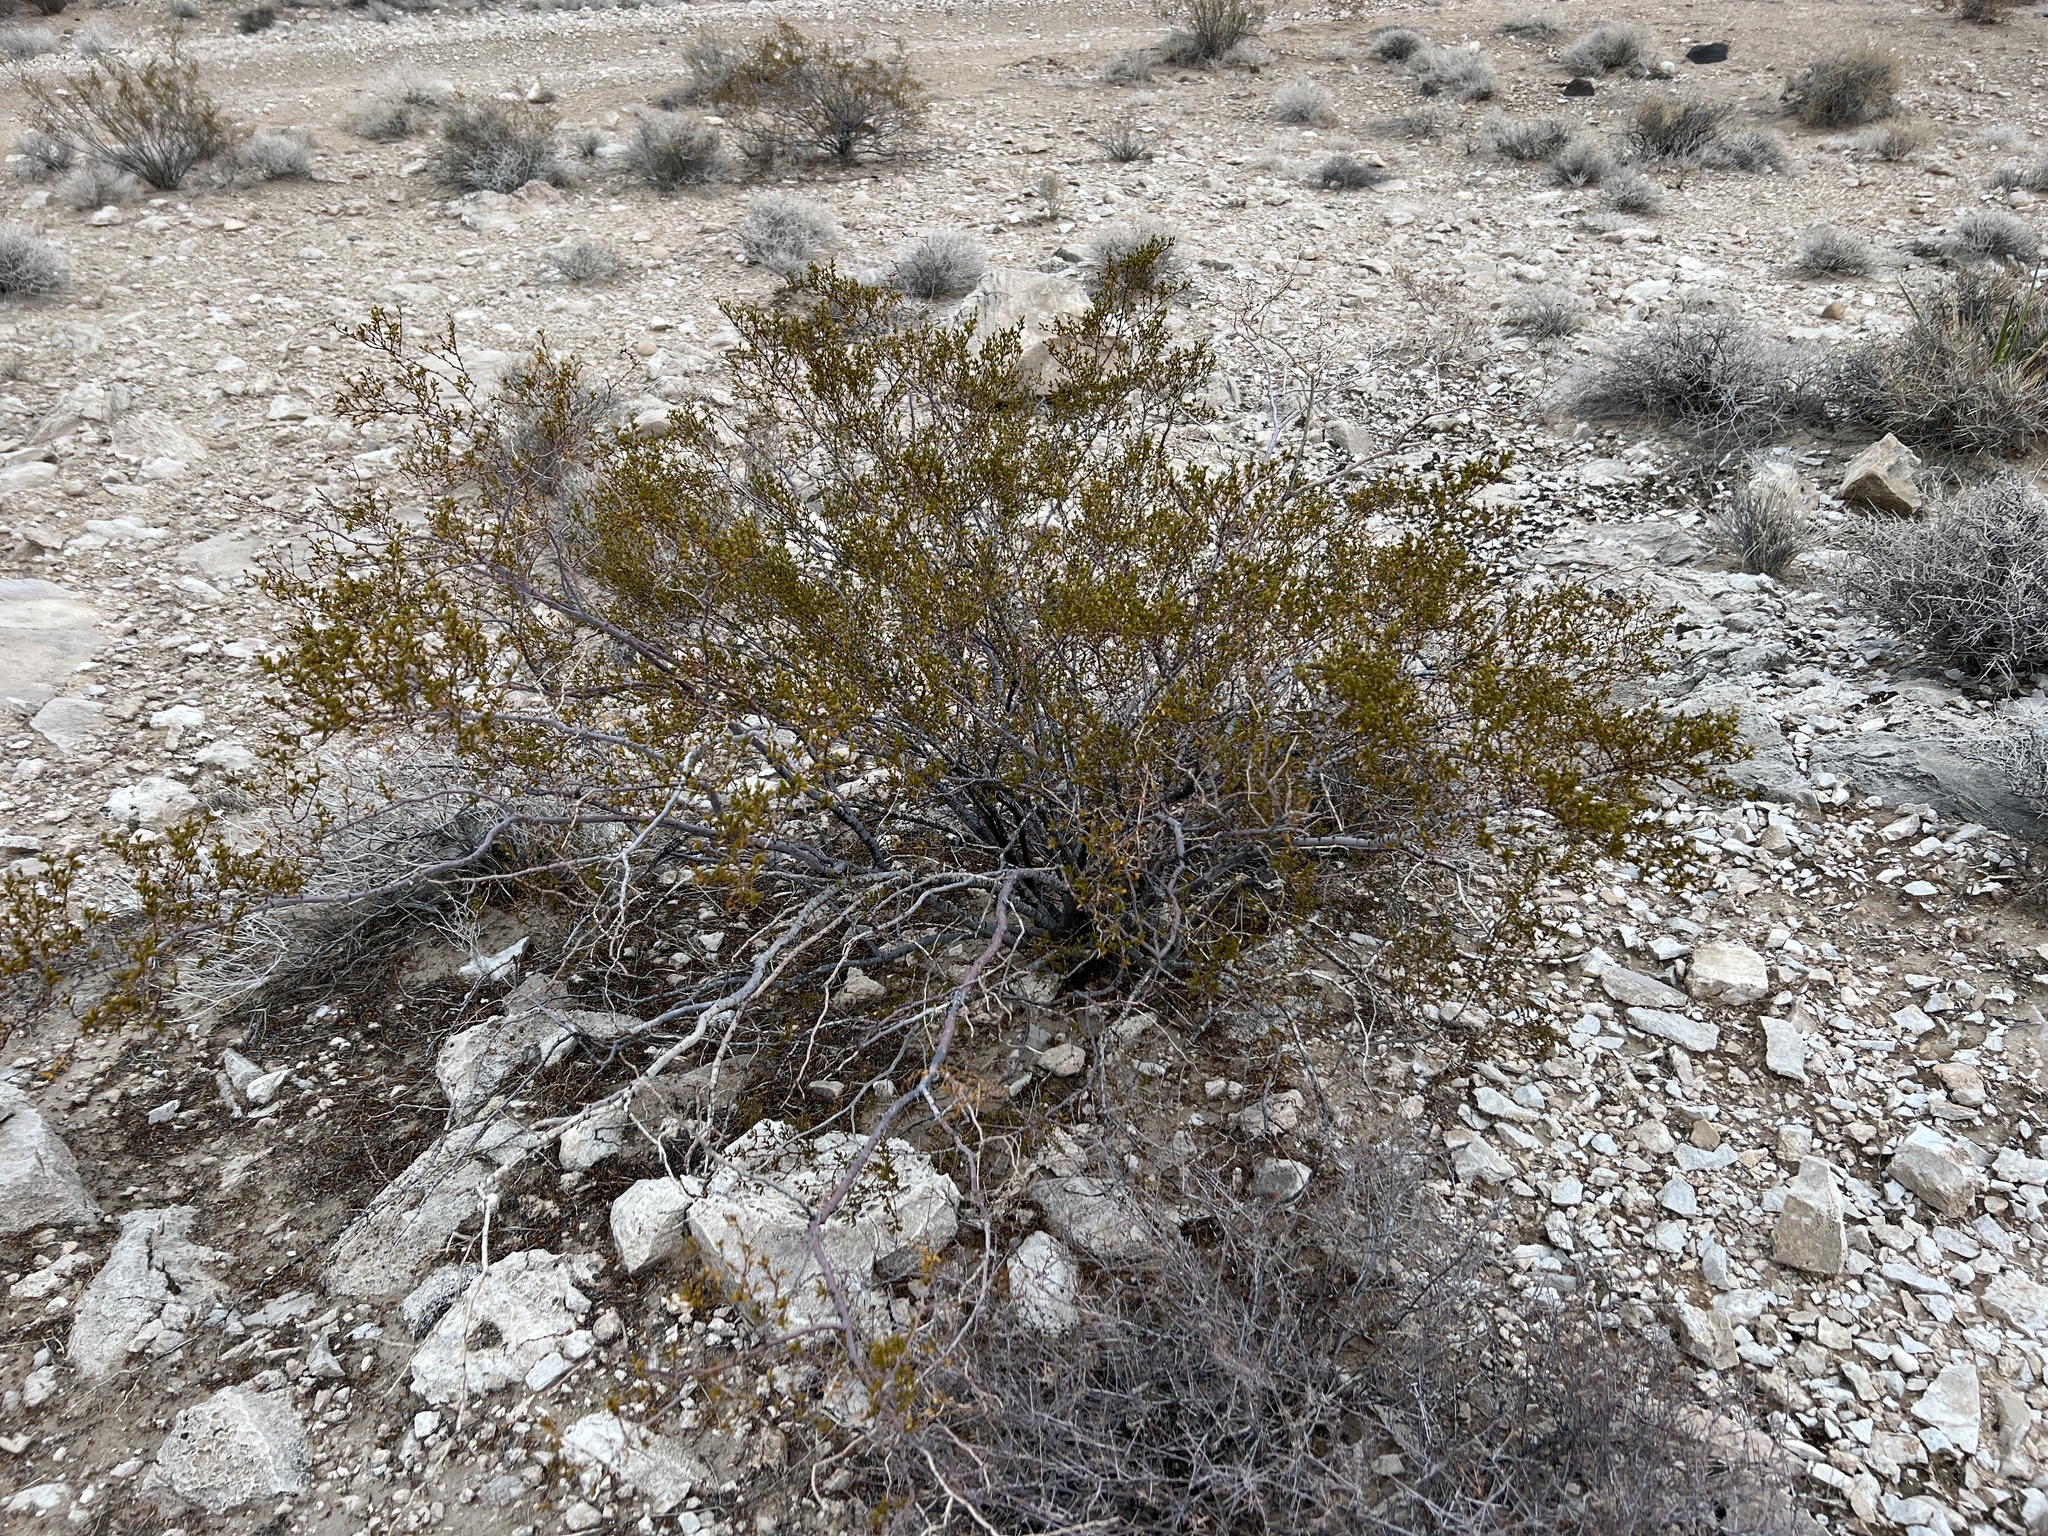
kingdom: Plantae
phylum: Tracheophyta
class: Magnoliopsida
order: Zygophyllales
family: Zygophyllaceae
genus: Larrea
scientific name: Larrea tridentata
